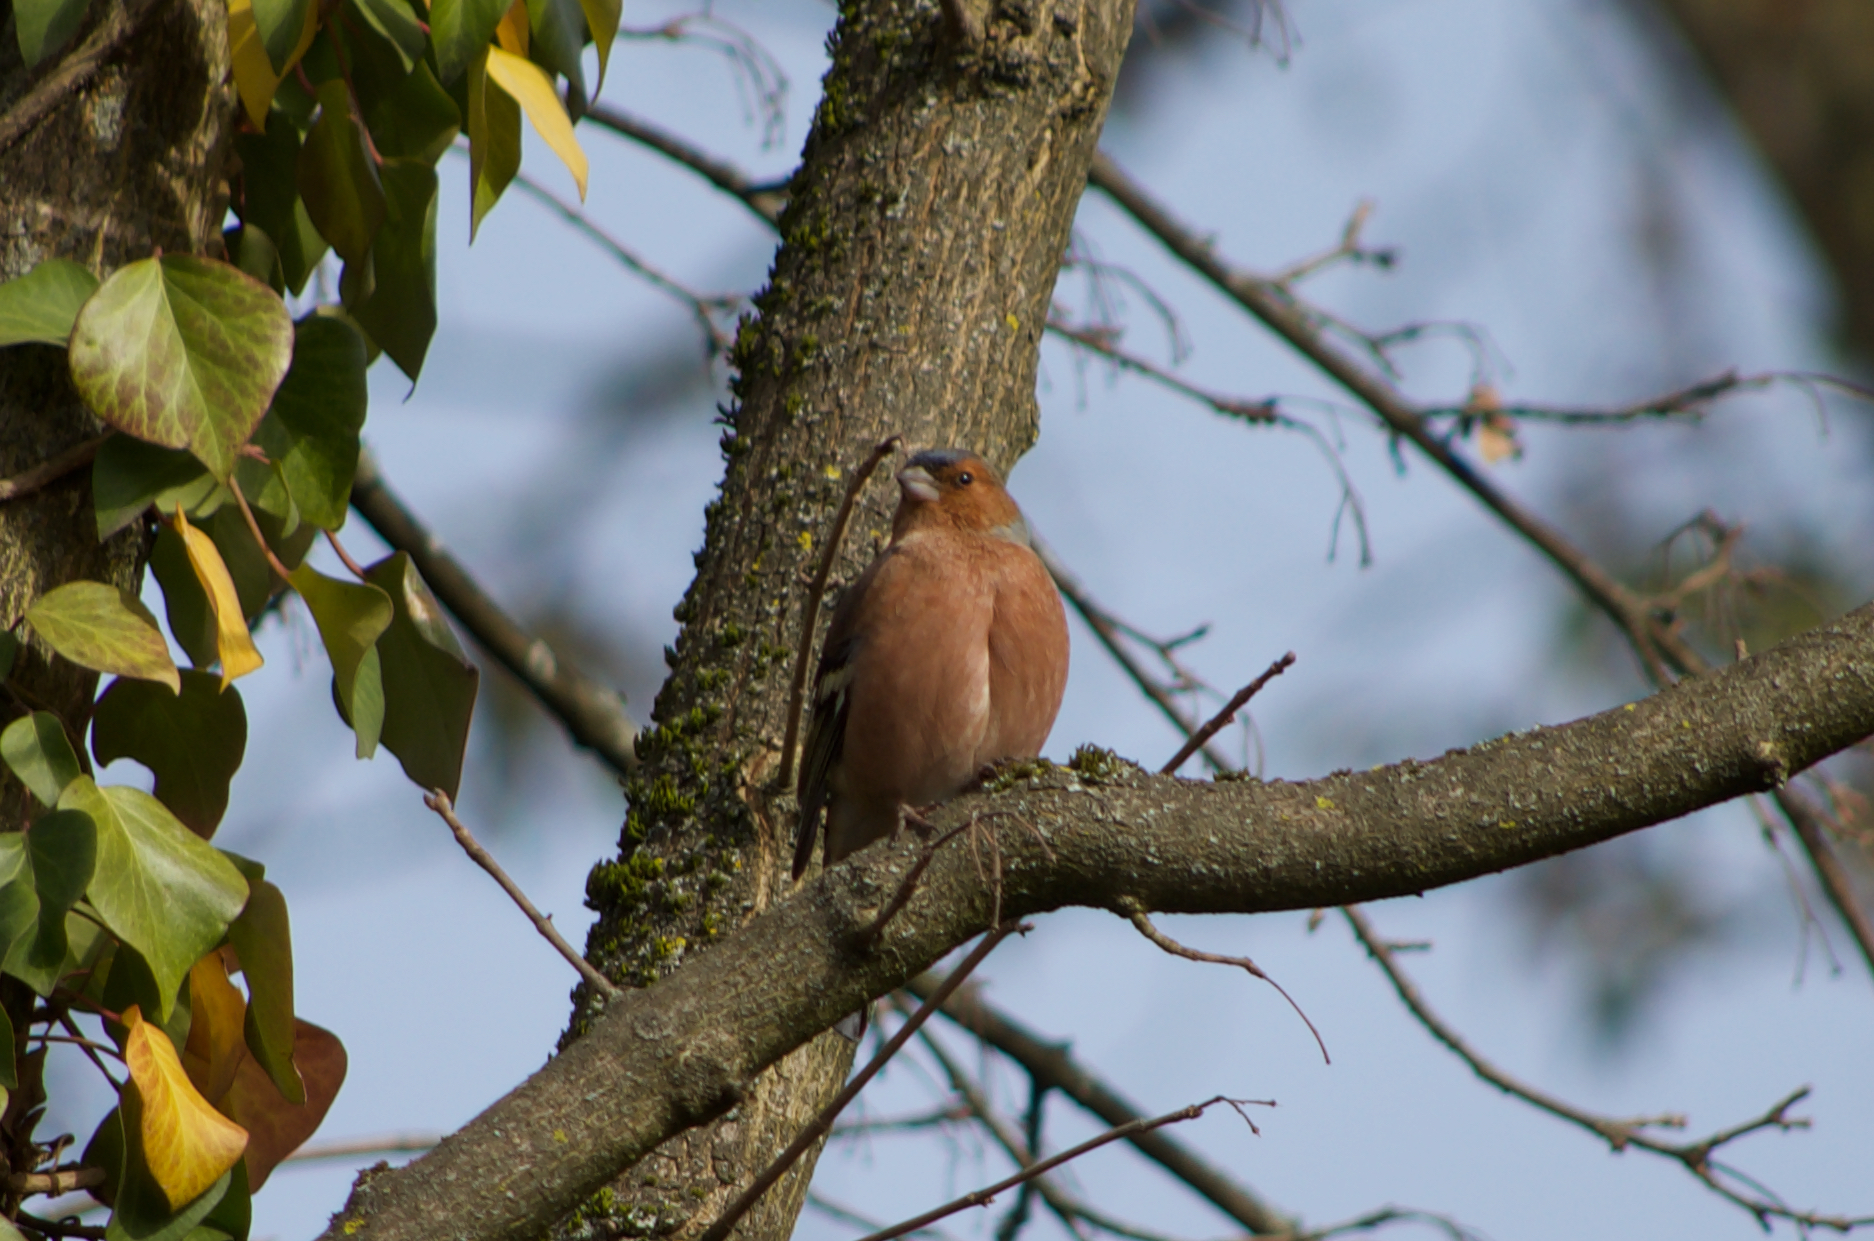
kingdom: Animalia
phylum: Chordata
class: Aves
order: Passeriformes
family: Fringillidae
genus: Fringilla
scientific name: Fringilla coelebs
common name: Common chaffinch
